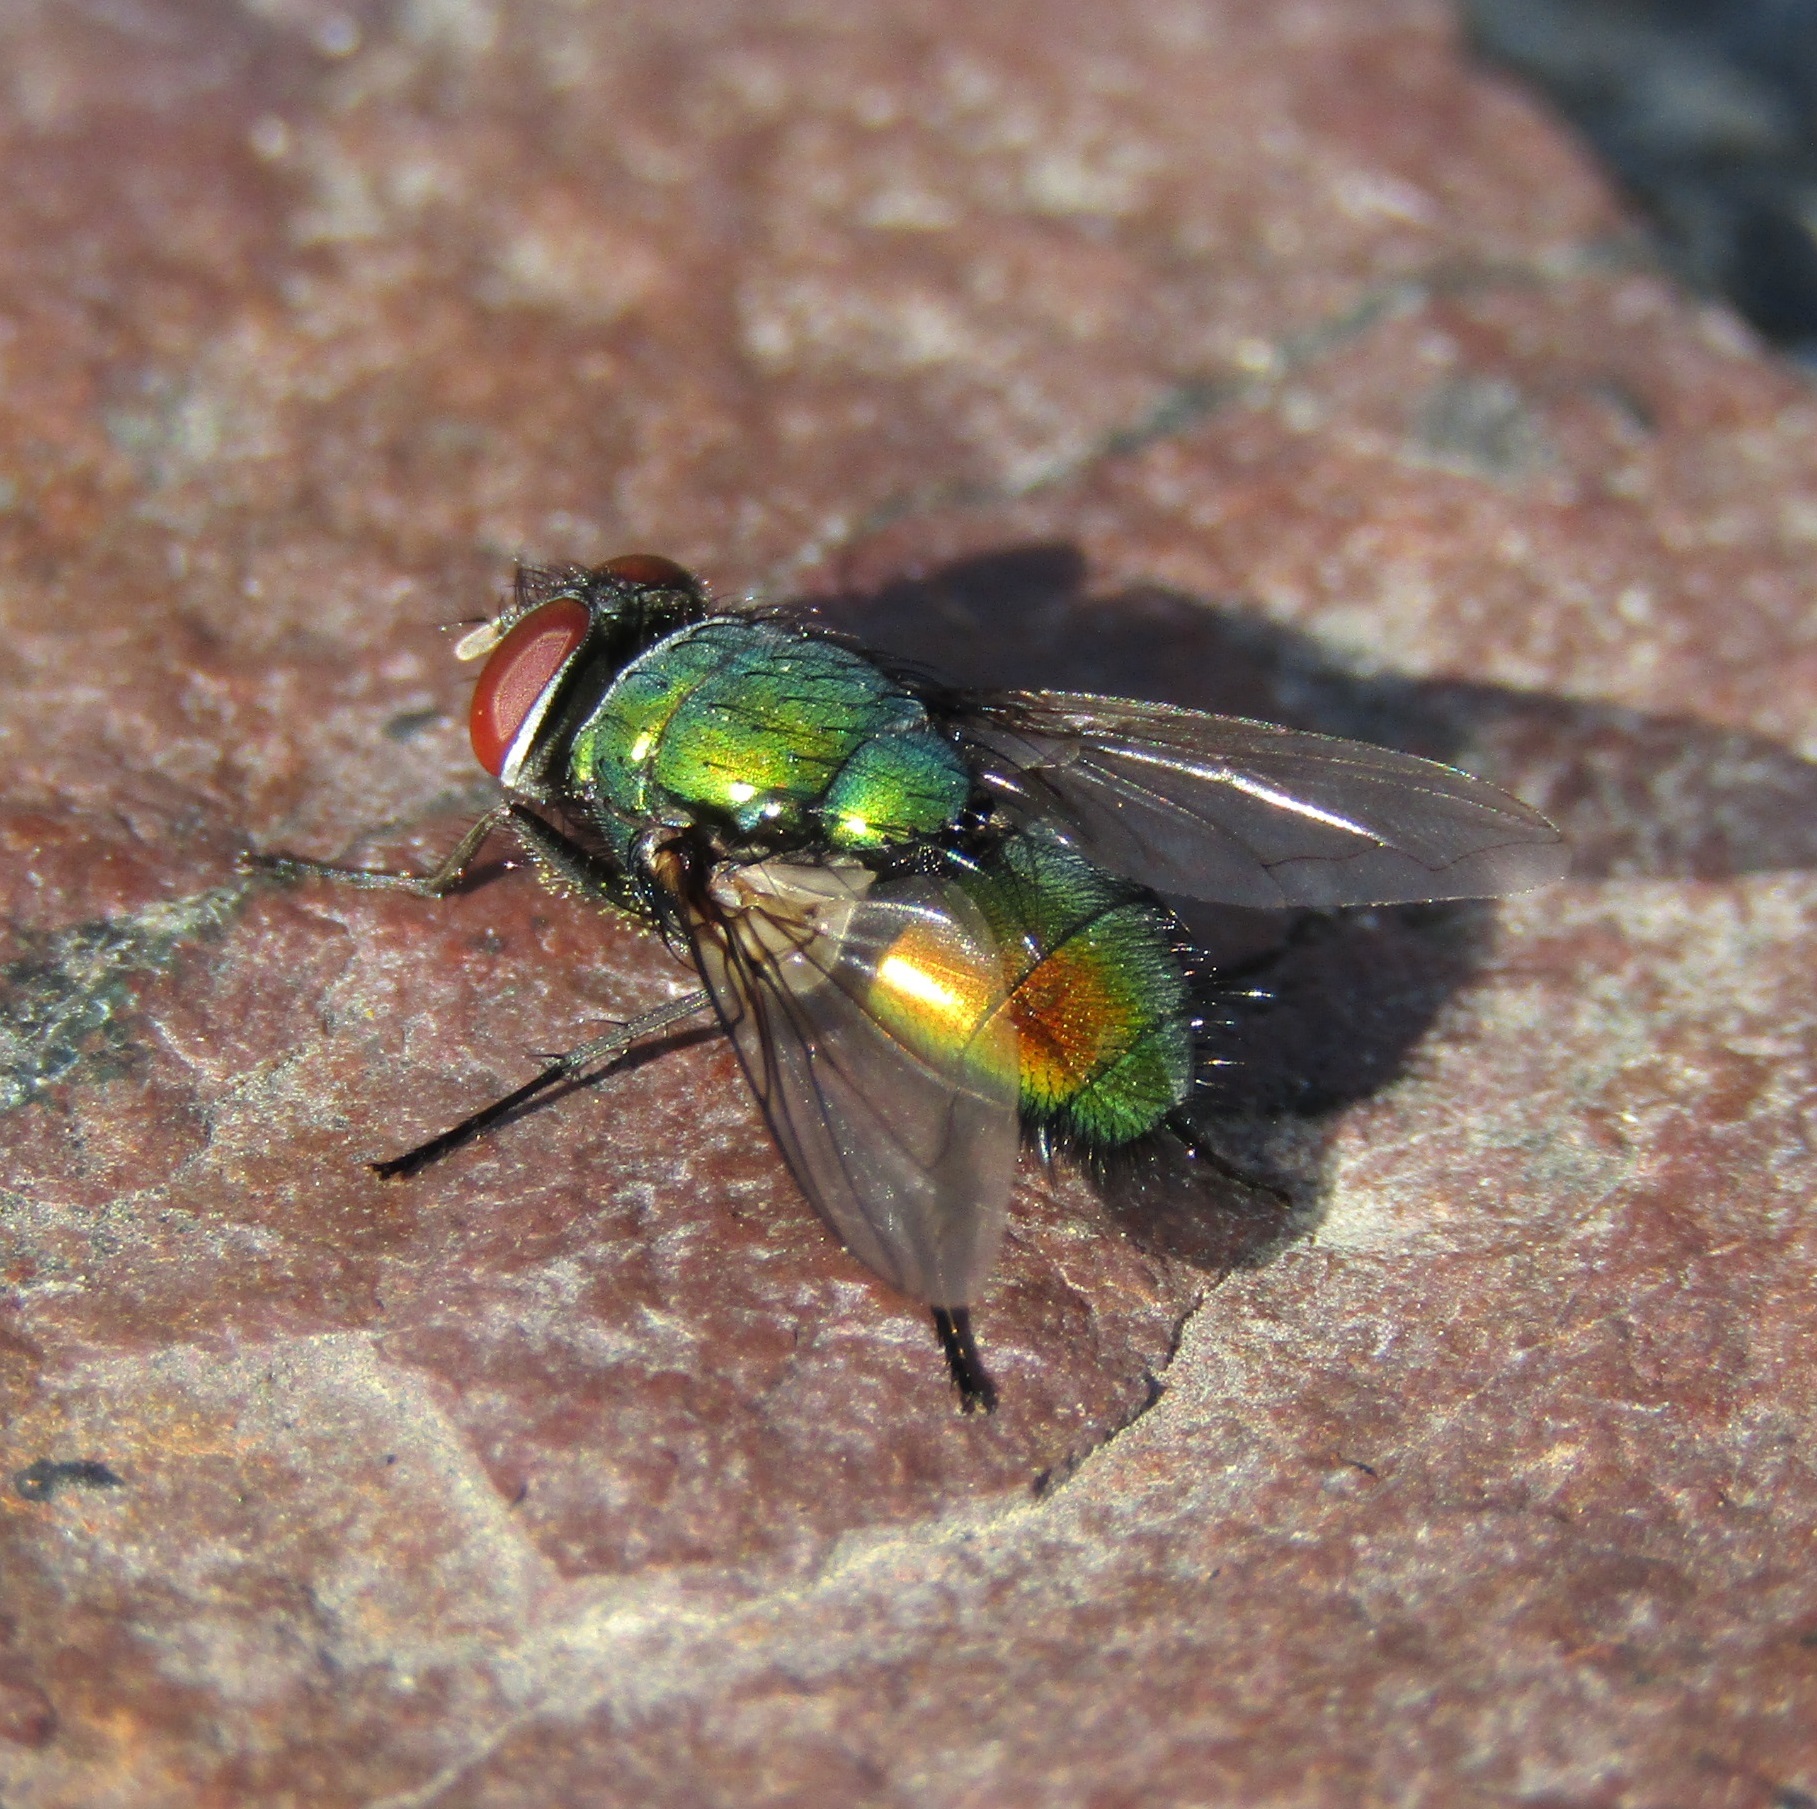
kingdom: Animalia
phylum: Arthropoda
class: Insecta
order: Diptera
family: Calliphoridae
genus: Lucilia
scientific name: Lucilia sericata
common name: Blow fly
